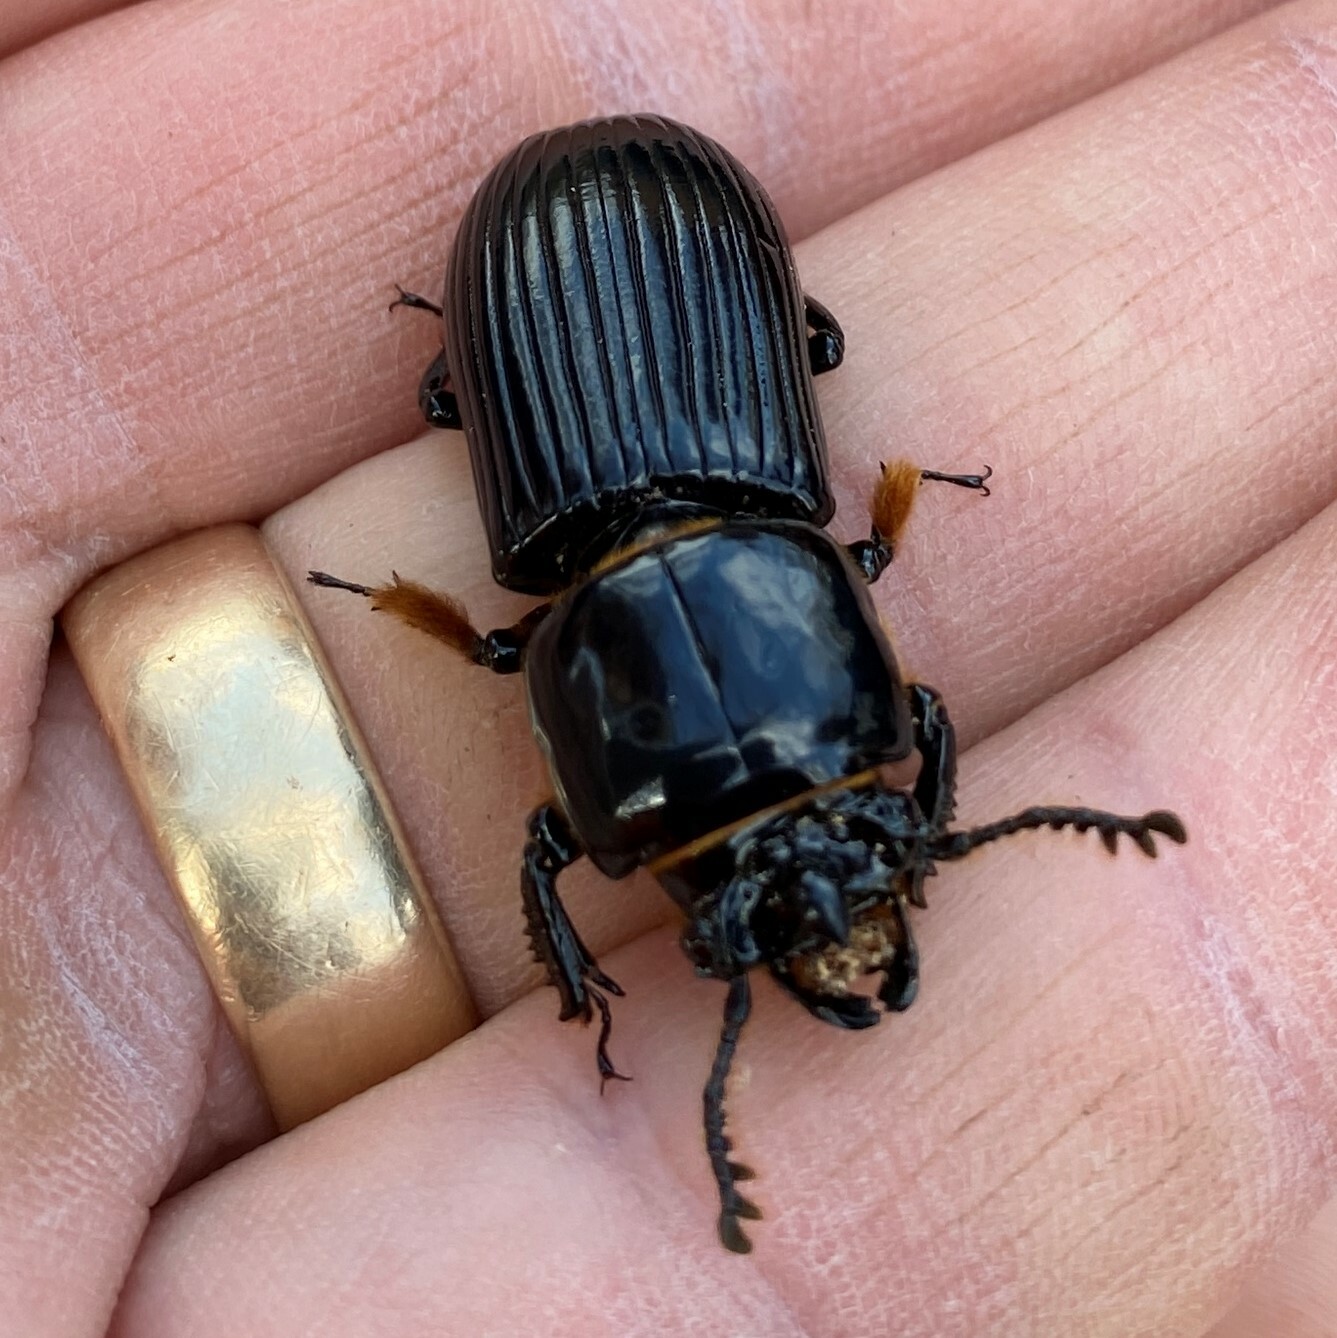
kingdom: Animalia
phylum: Arthropoda
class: Insecta
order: Coleoptera
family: Passalidae
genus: Odontotaenius
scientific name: Odontotaenius disjunctus
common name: Patent leather beetle
